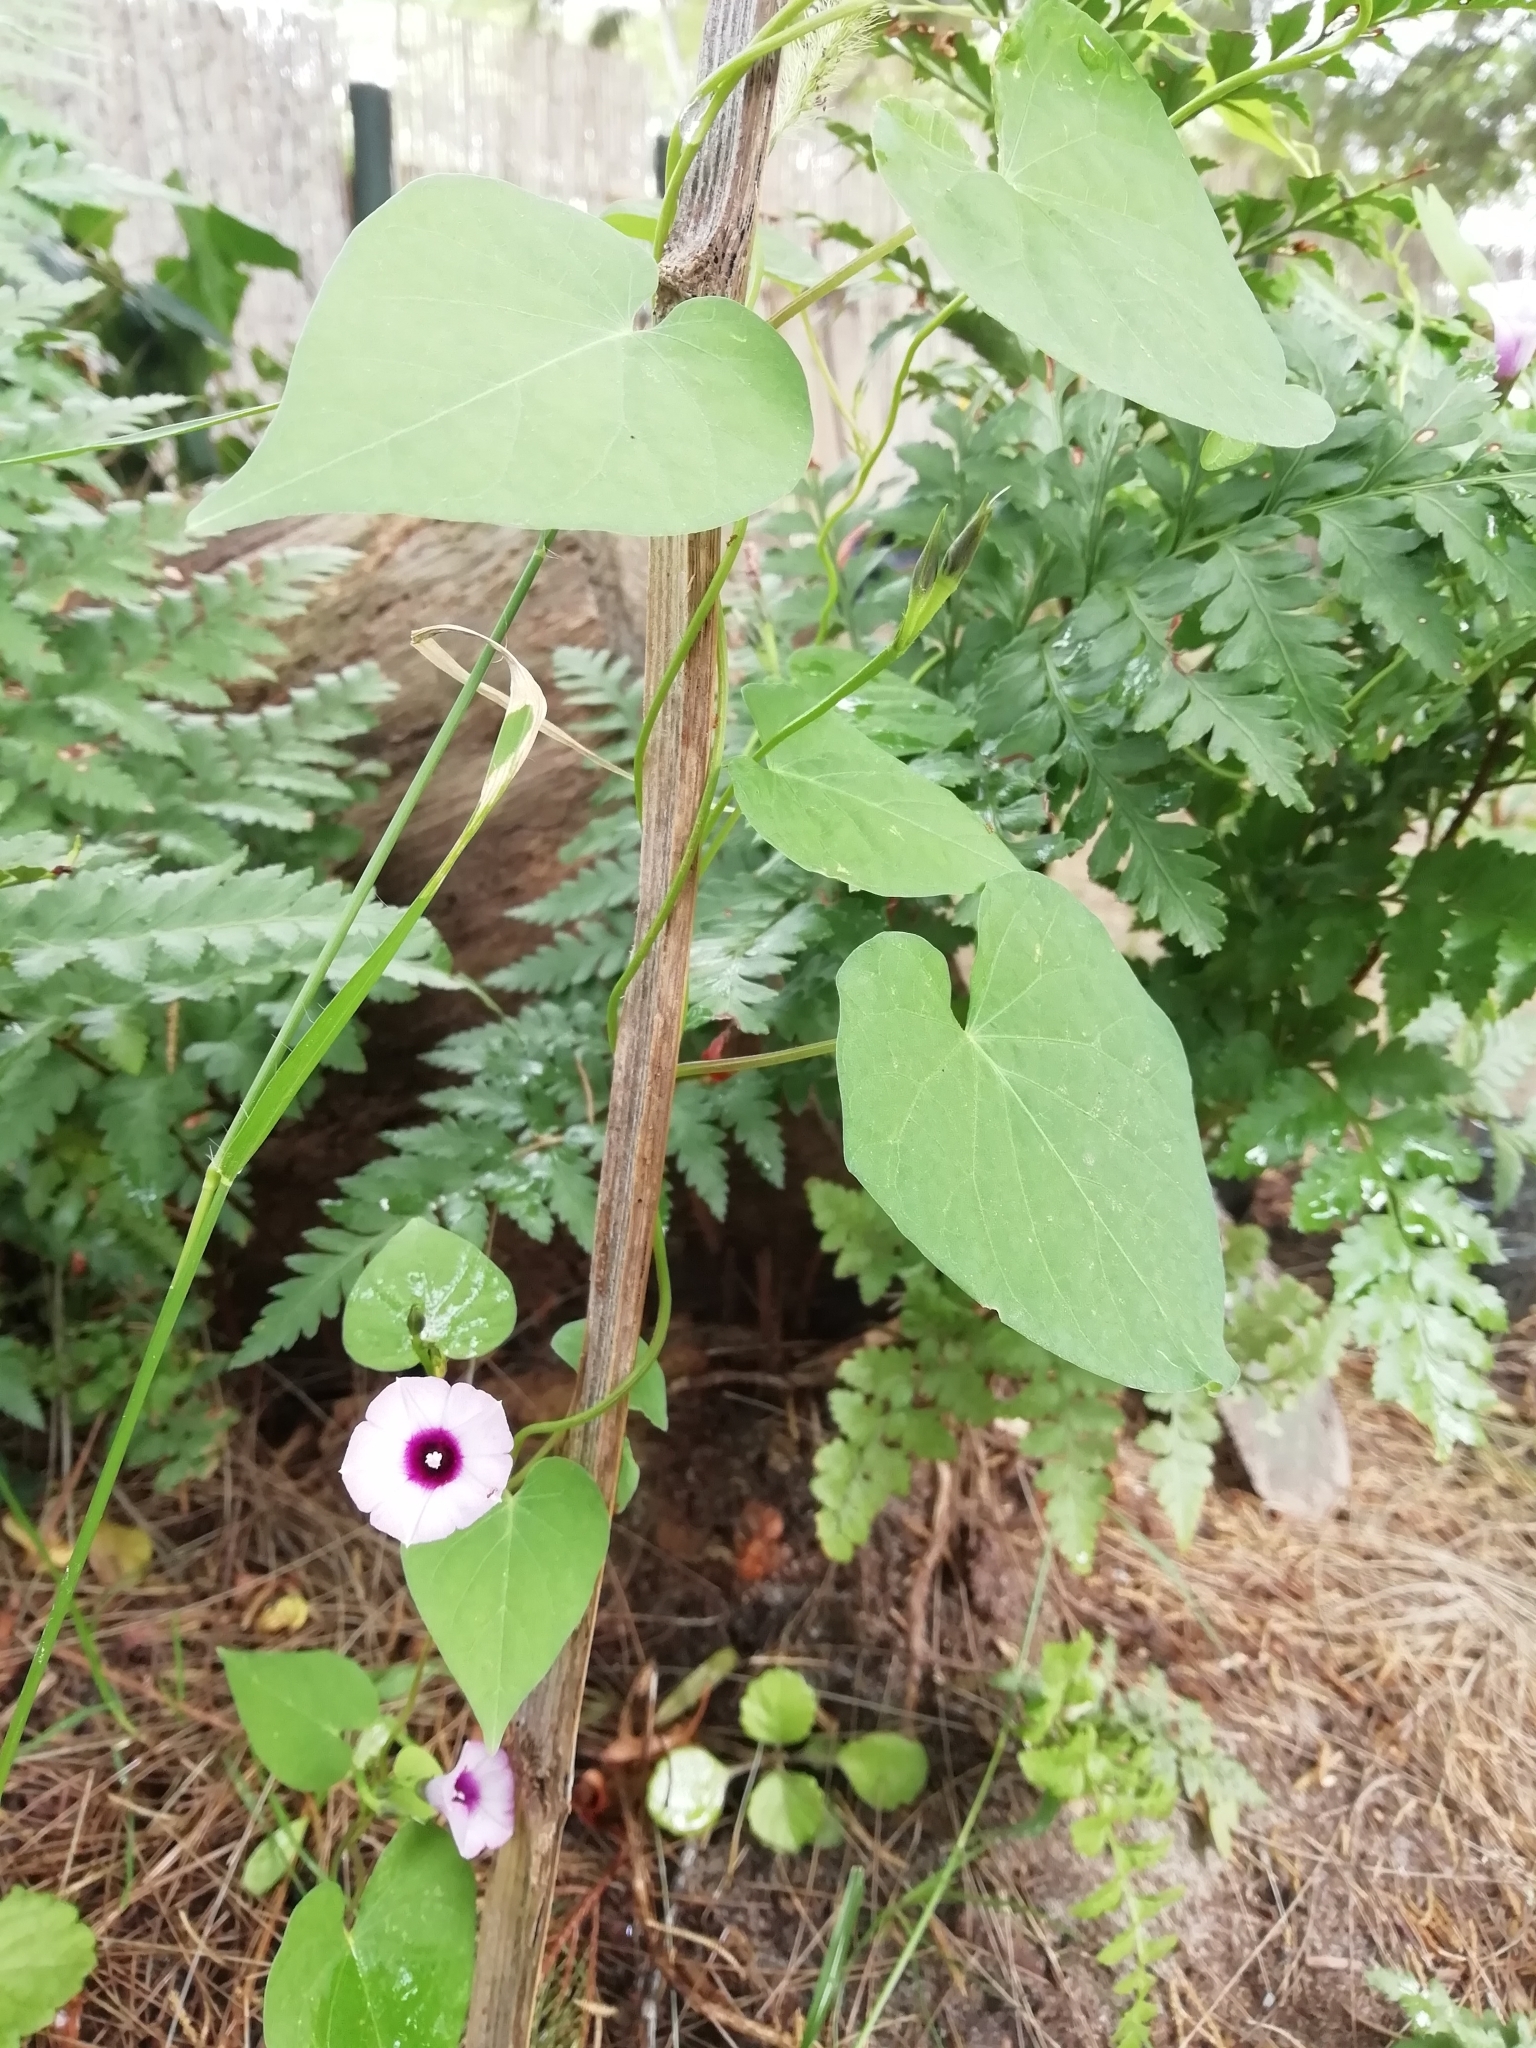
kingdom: Plantae
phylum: Tracheophyta
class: Magnoliopsida
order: Solanales
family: Convolvulaceae
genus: Ipomoea
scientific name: Ipomoea grandifolia
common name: Aiea morning glory
